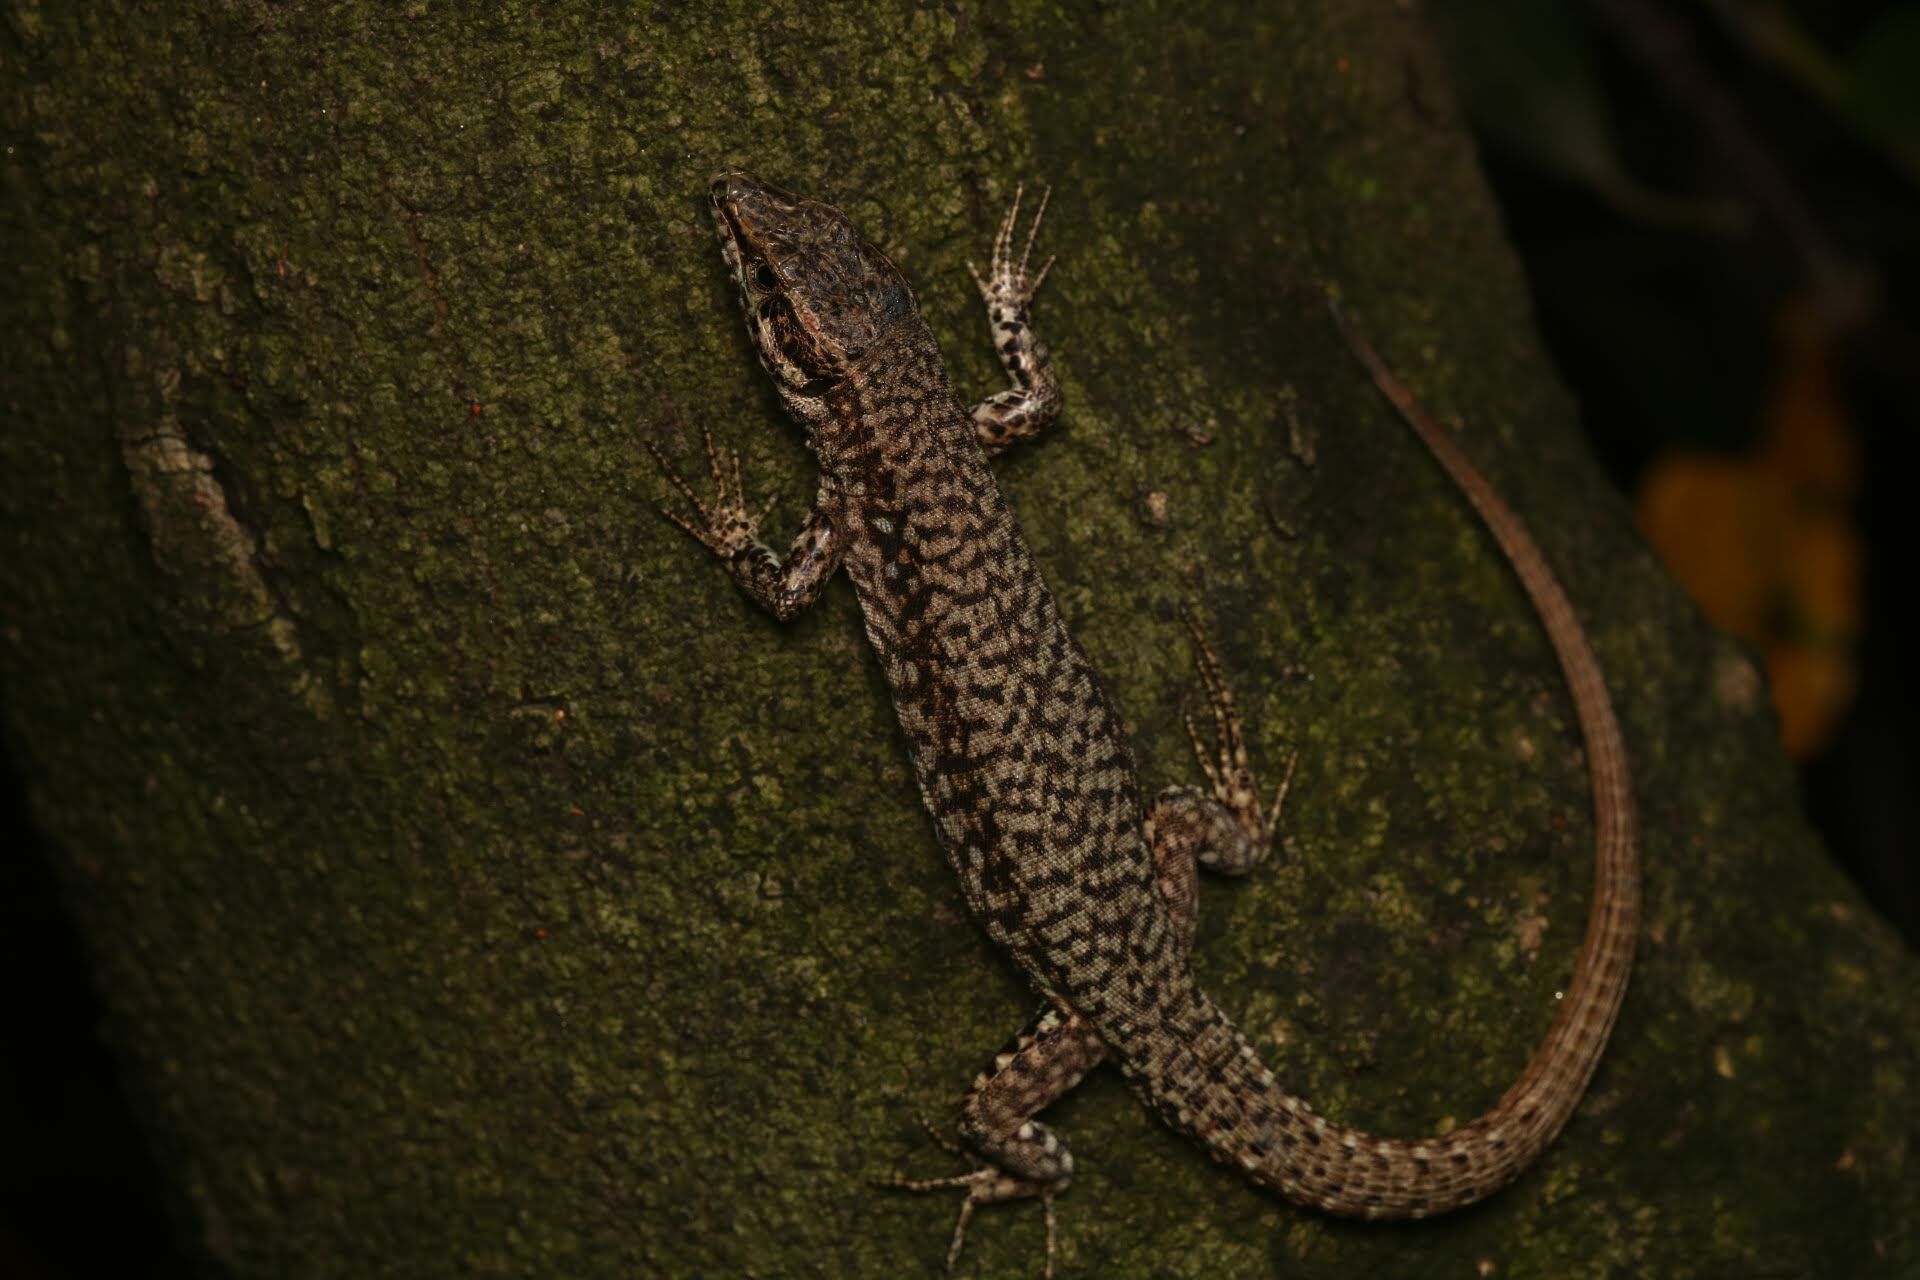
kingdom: Animalia
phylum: Chordata
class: Squamata
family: Lacertidae
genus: Podarcis
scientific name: Podarcis muralis
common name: Common wall lizard
